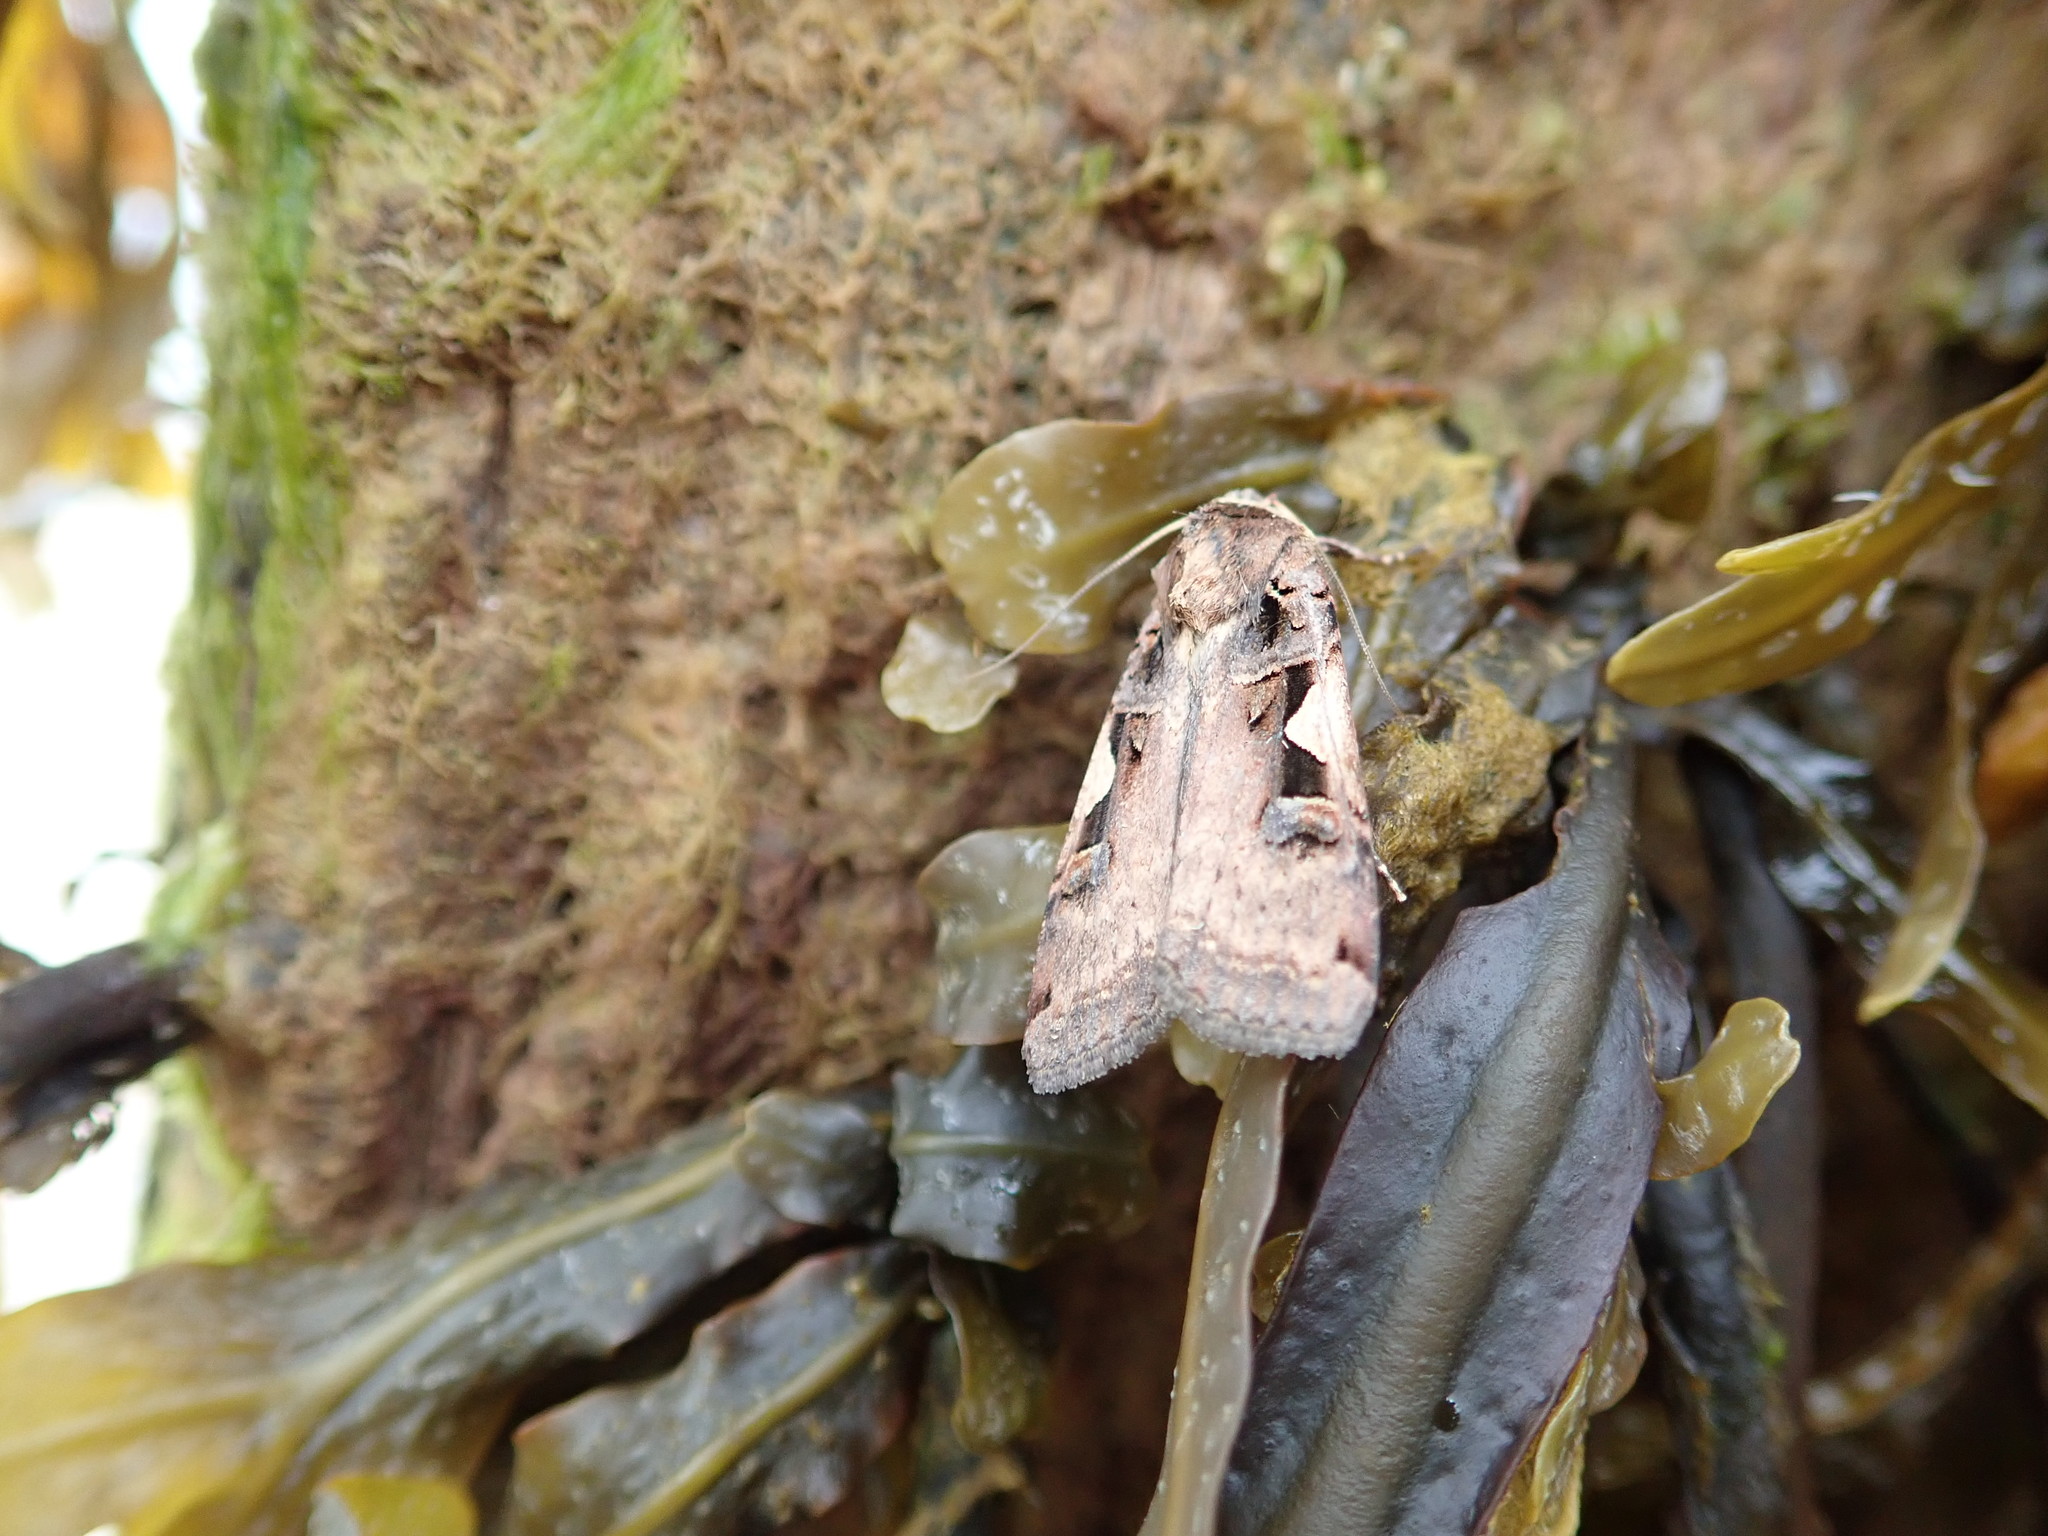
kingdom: Animalia
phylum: Arthropoda
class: Insecta
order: Lepidoptera
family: Noctuidae
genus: Xestia
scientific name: Xestia c-nigrum
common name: Setaceous hebrew character
